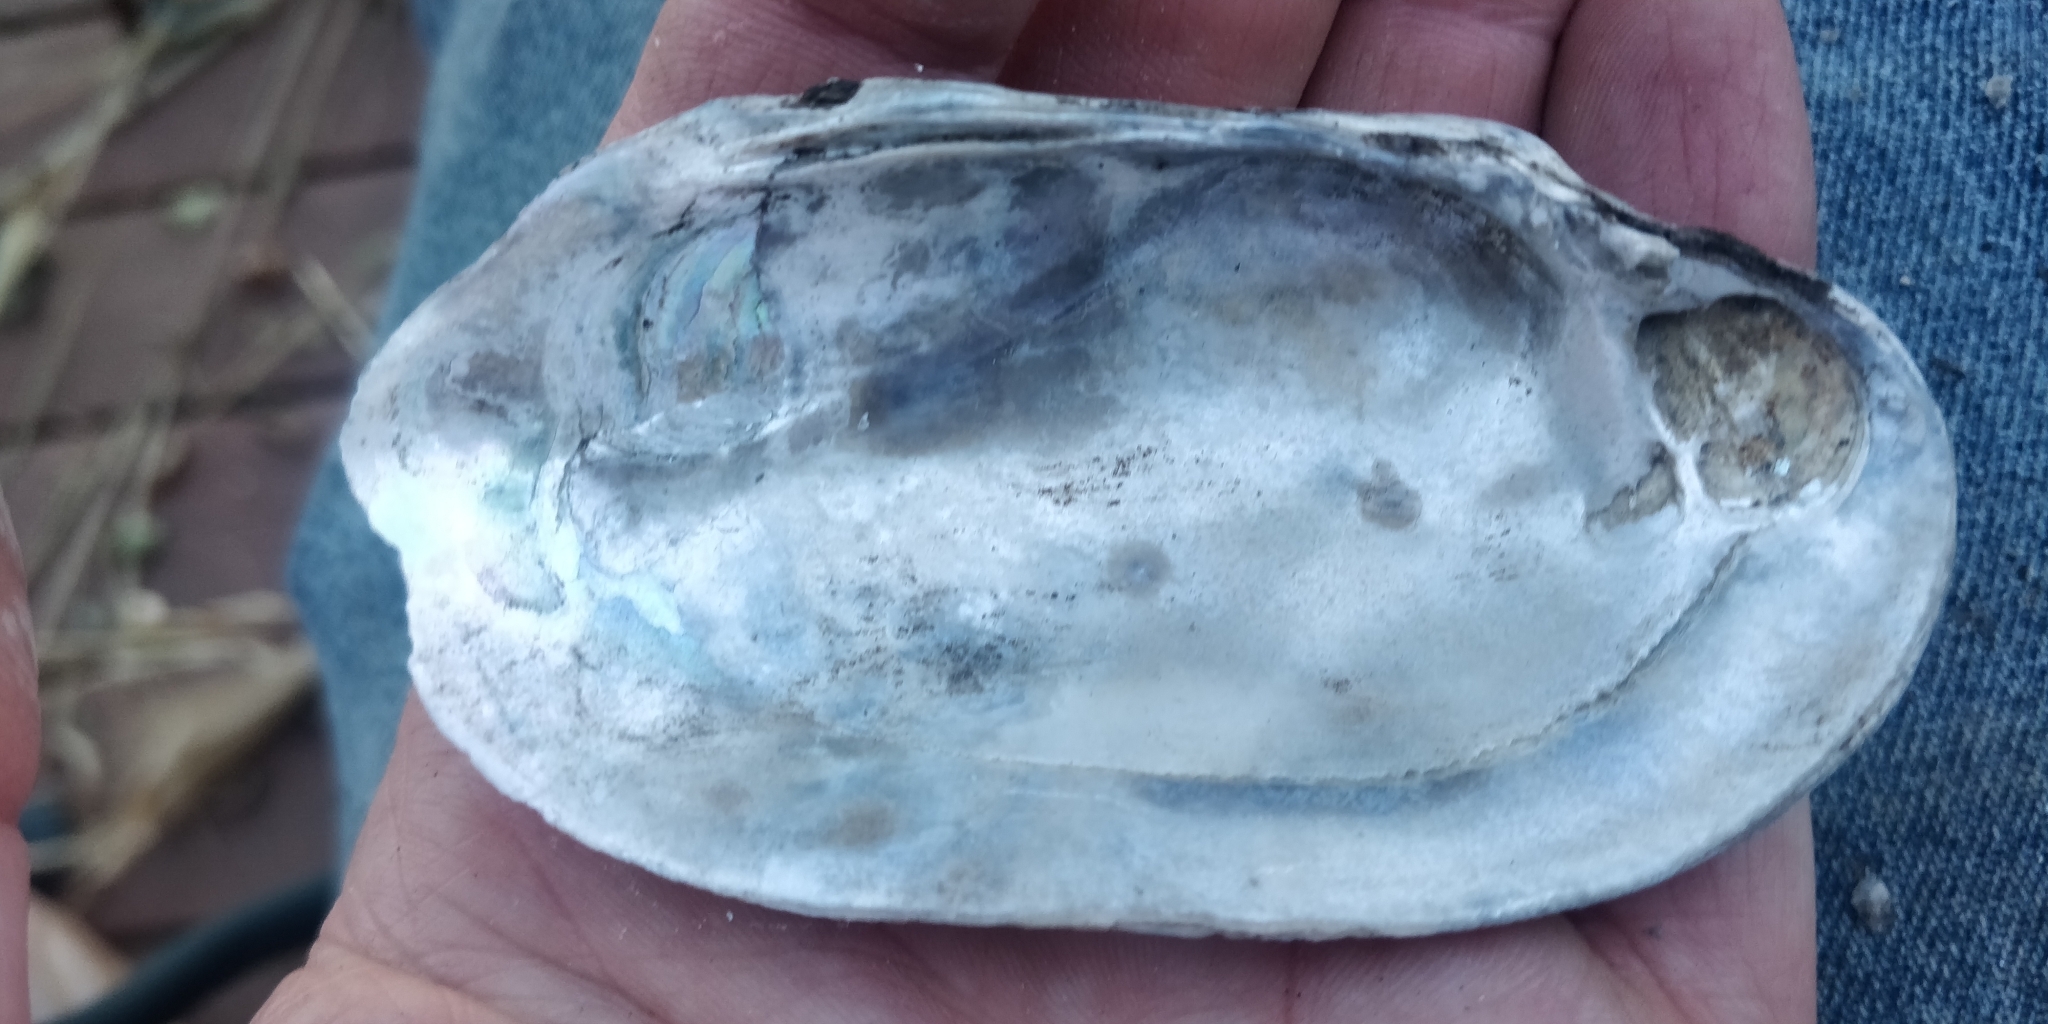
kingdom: Animalia
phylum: Mollusca
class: Bivalvia
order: Unionida
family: Unionidae
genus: Lampsilis
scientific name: Lampsilis siliquoidea
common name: Fatmucket
